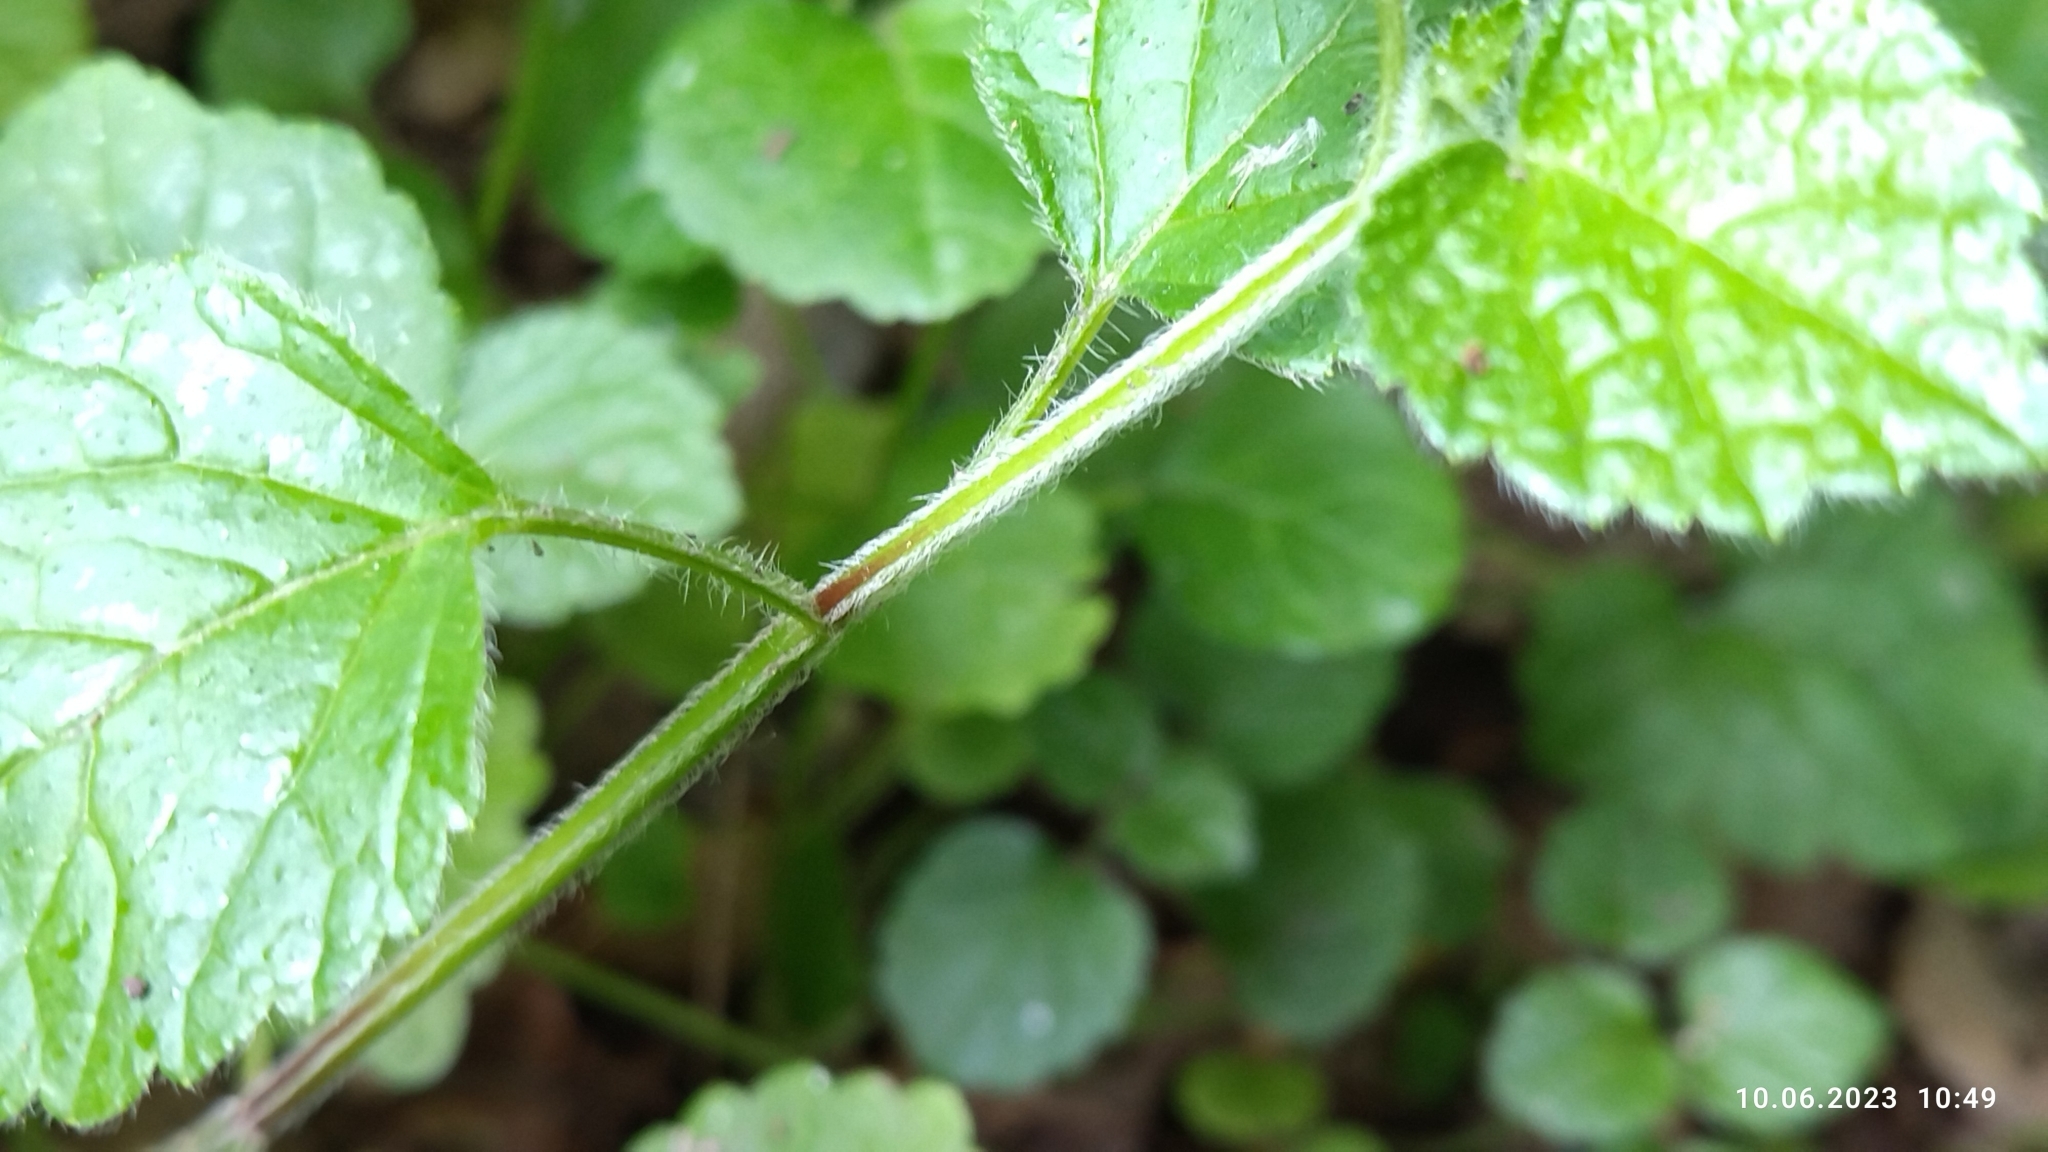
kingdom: Plantae
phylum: Tracheophyta
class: Magnoliopsida
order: Lamiales
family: Lamiaceae
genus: Lamium
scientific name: Lamium galeobdolon
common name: Yellow archangel
